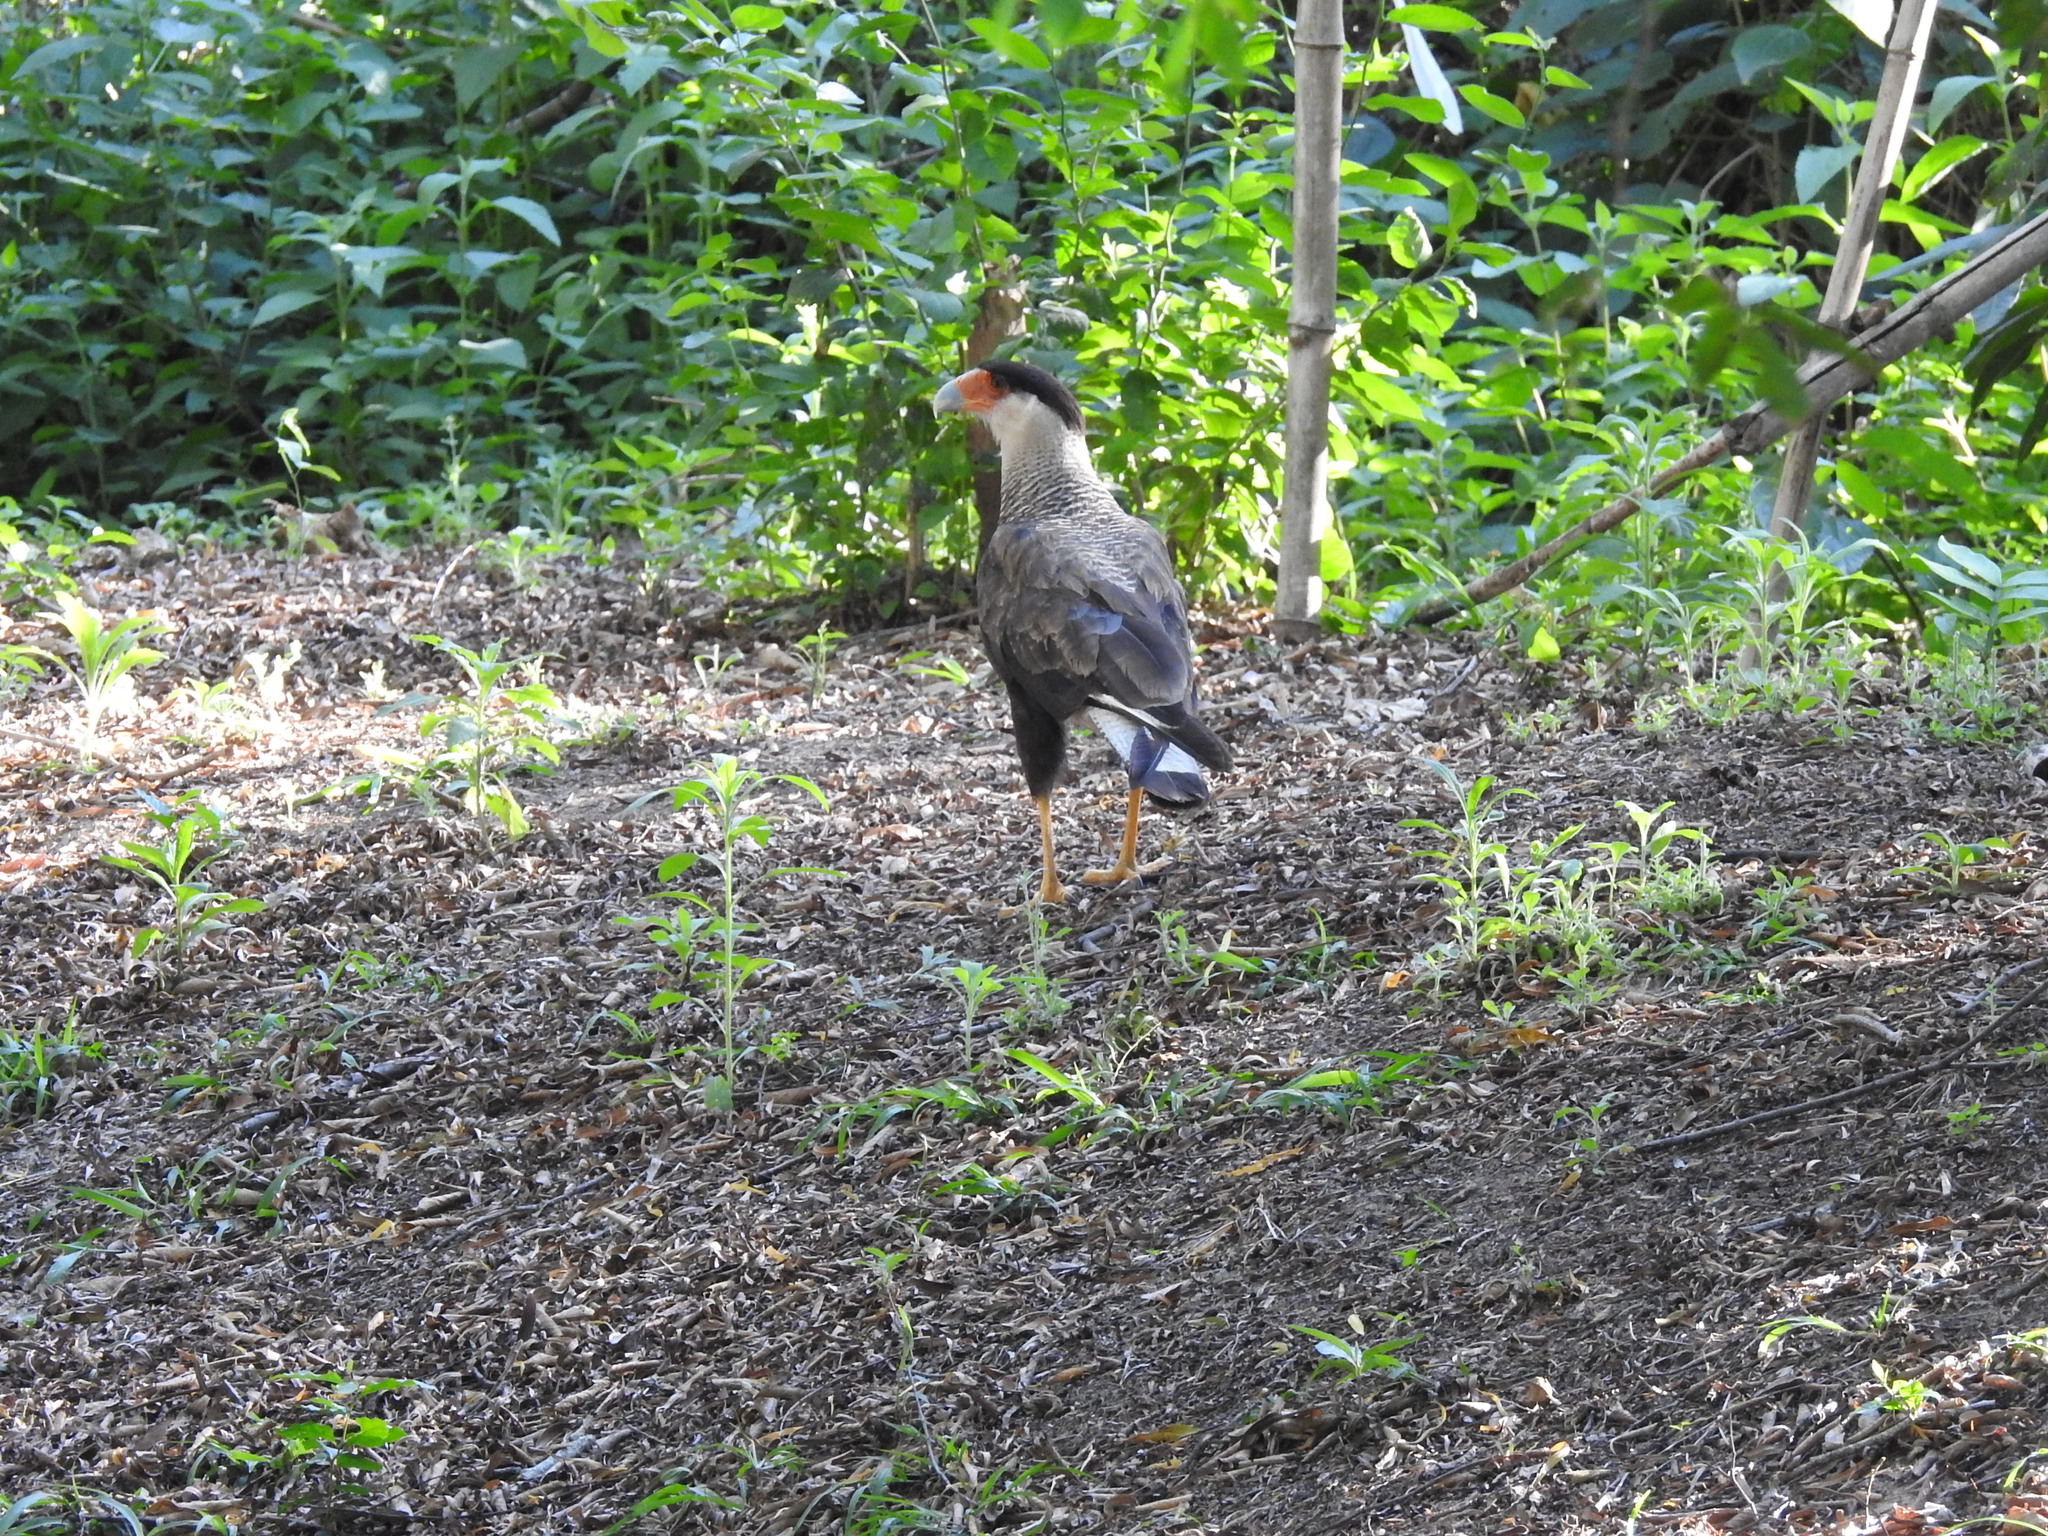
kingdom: Animalia
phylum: Chordata
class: Aves
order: Falconiformes
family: Falconidae
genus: Caracara
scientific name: Caracara plancus
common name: Southern caracara
